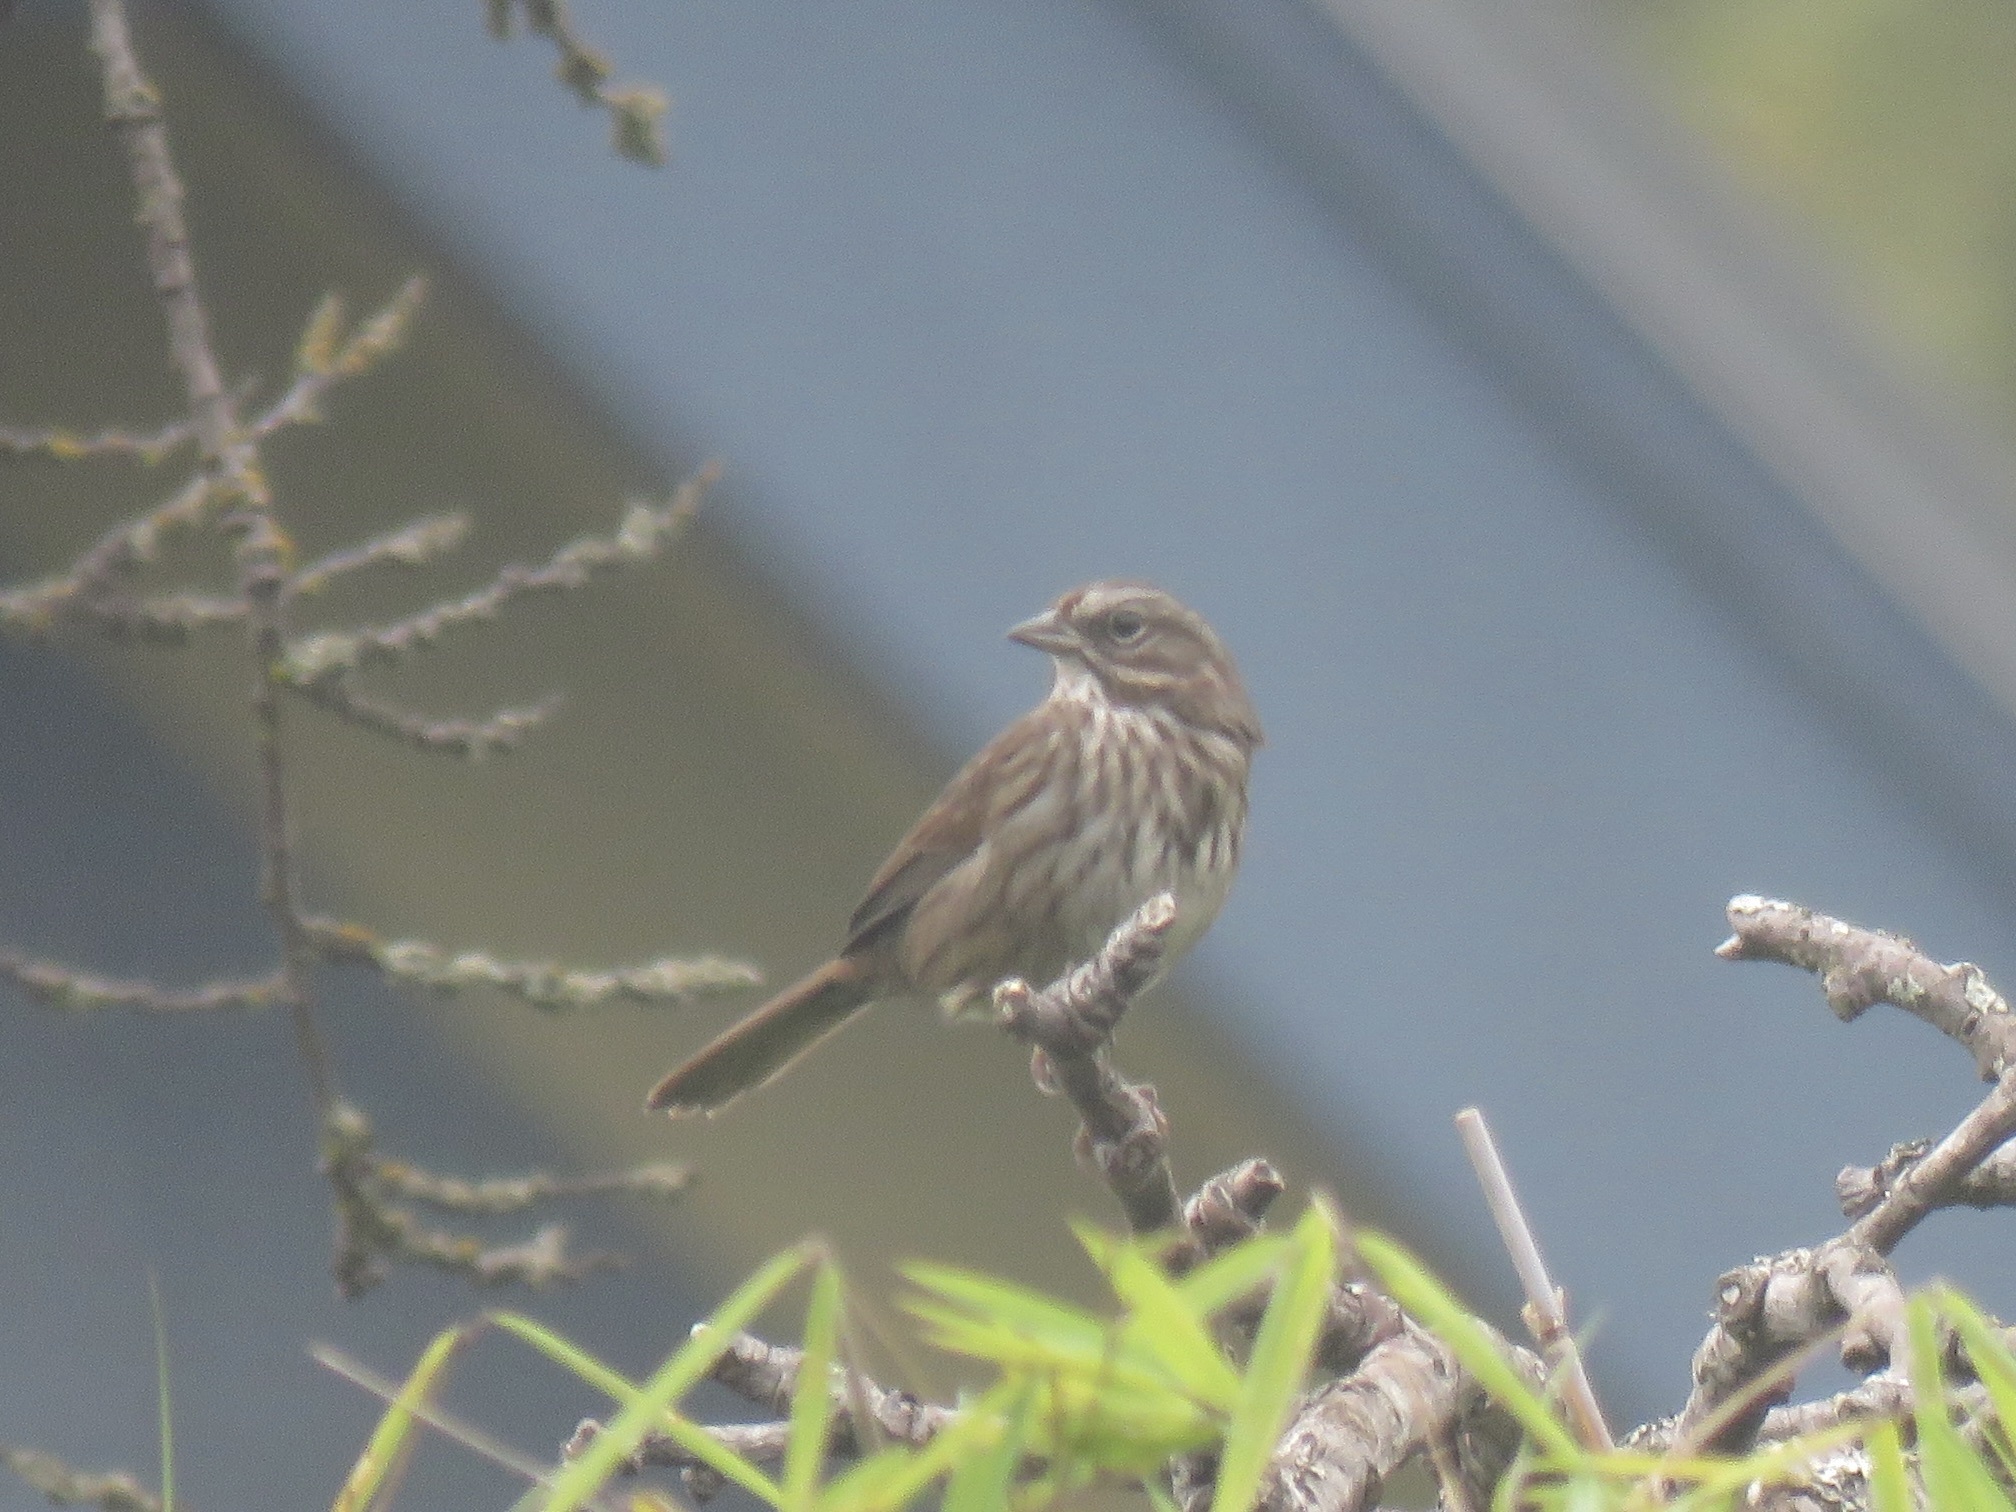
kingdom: Animalia
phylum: Chordata
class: Aves
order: Passeriformes
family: Passerellidae
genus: Melospiza
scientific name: Melospiza melodia
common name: Song sparrow
